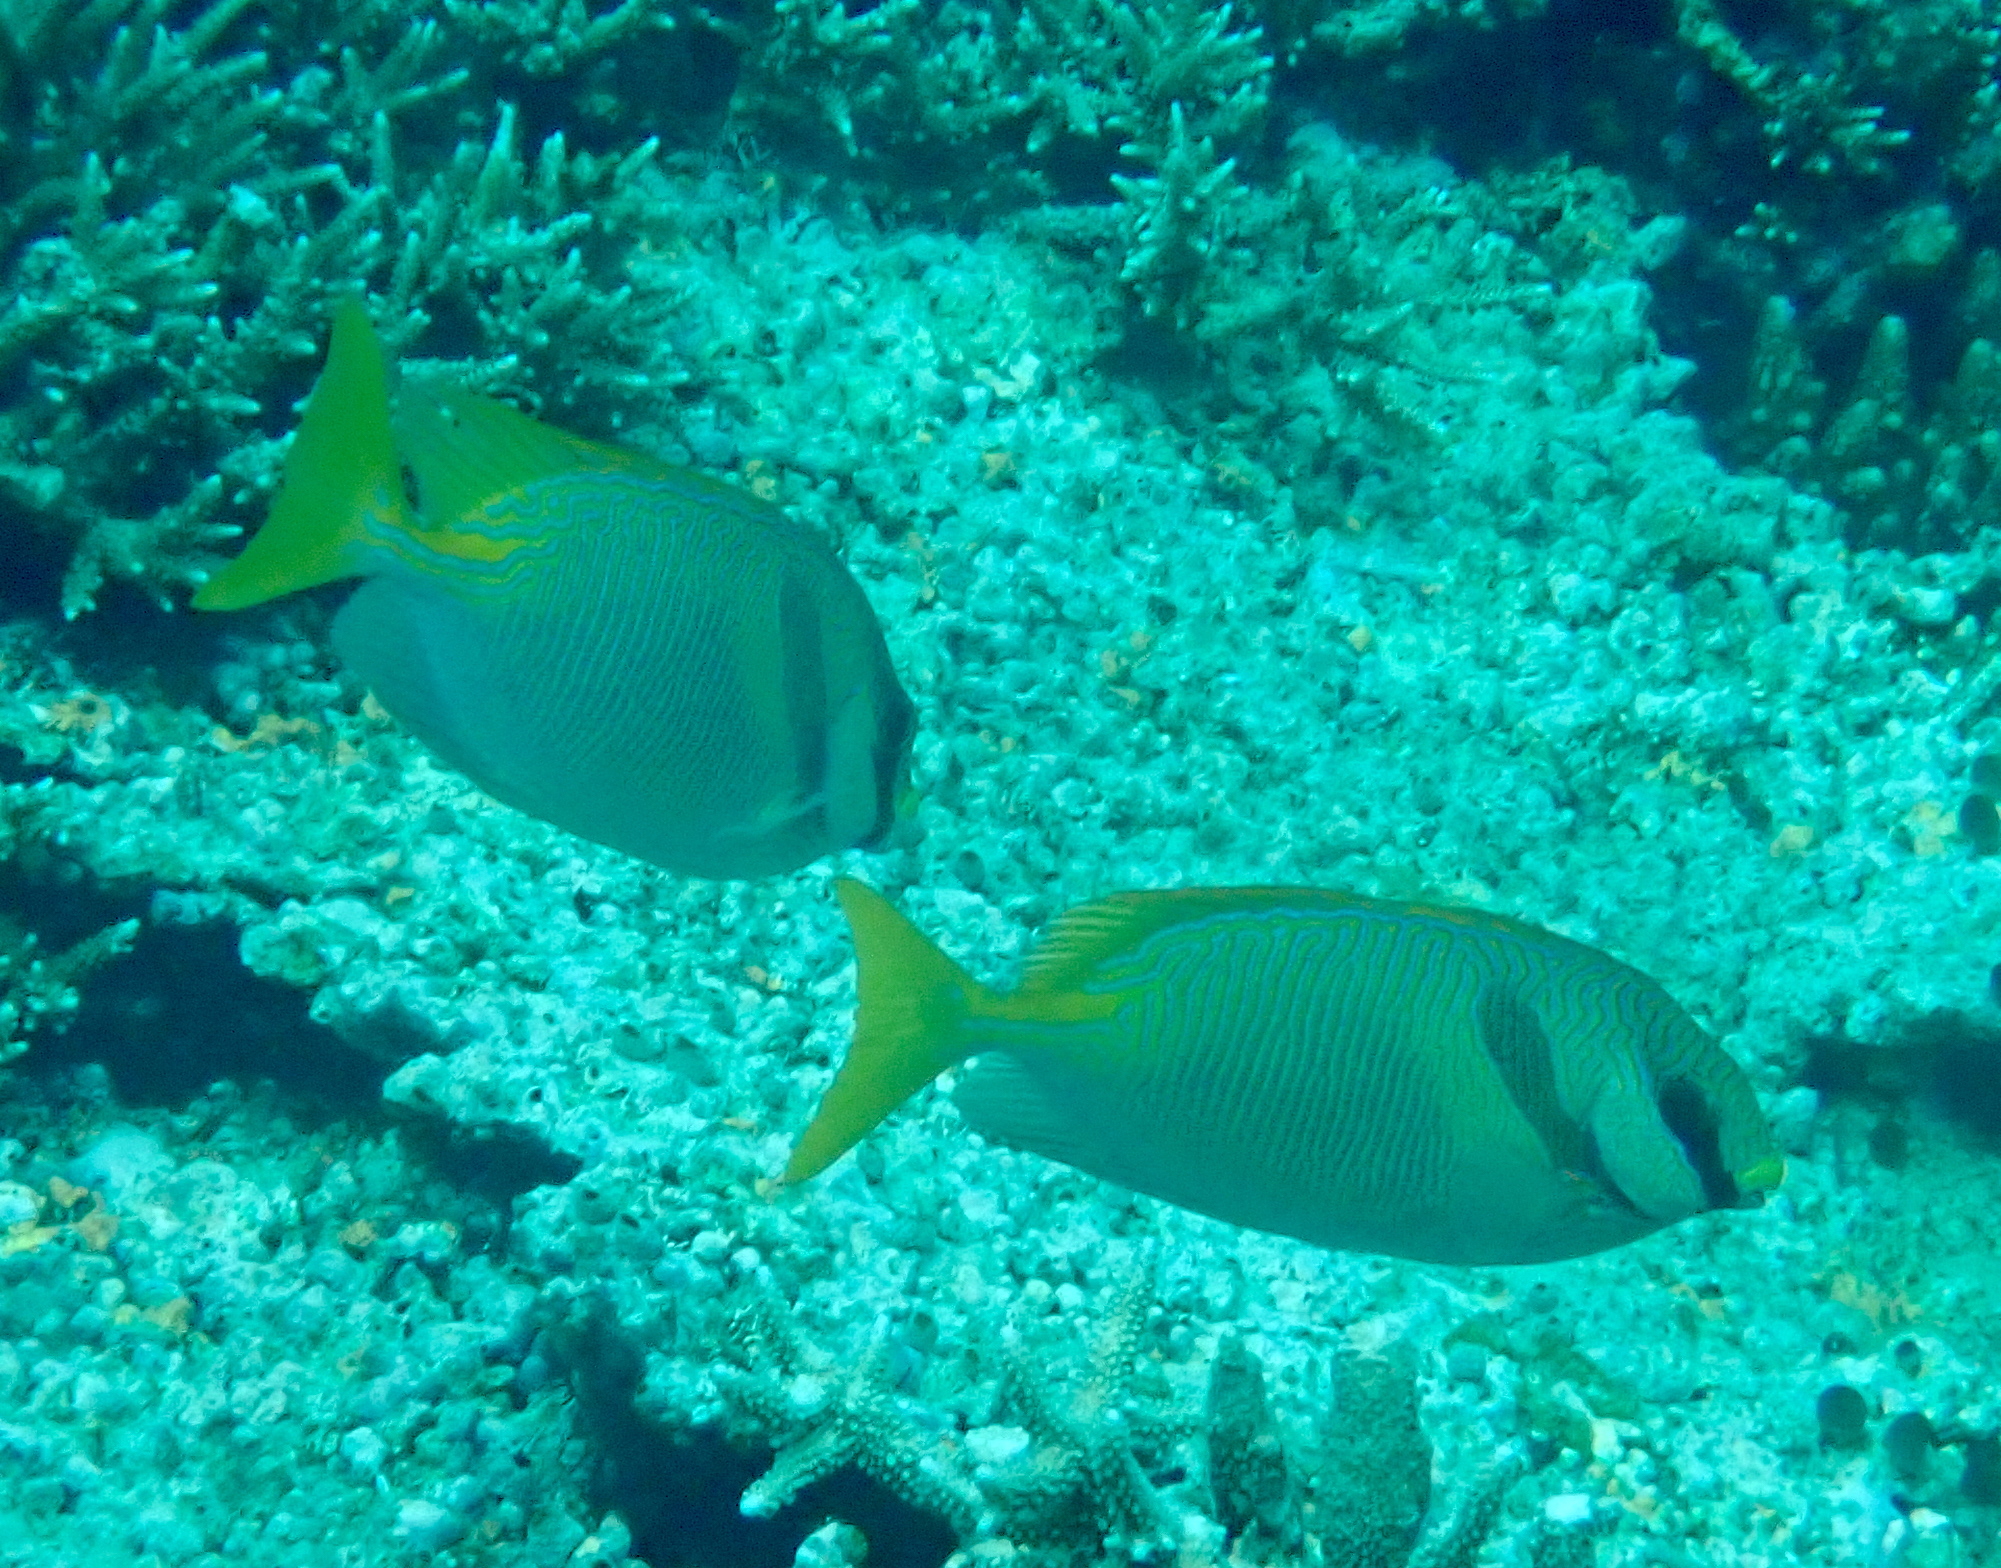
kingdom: Animalia
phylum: Chordata
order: Perciformes
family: Siganidae
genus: Siganus
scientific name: Siganus doliatus
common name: Barred spinefoot
